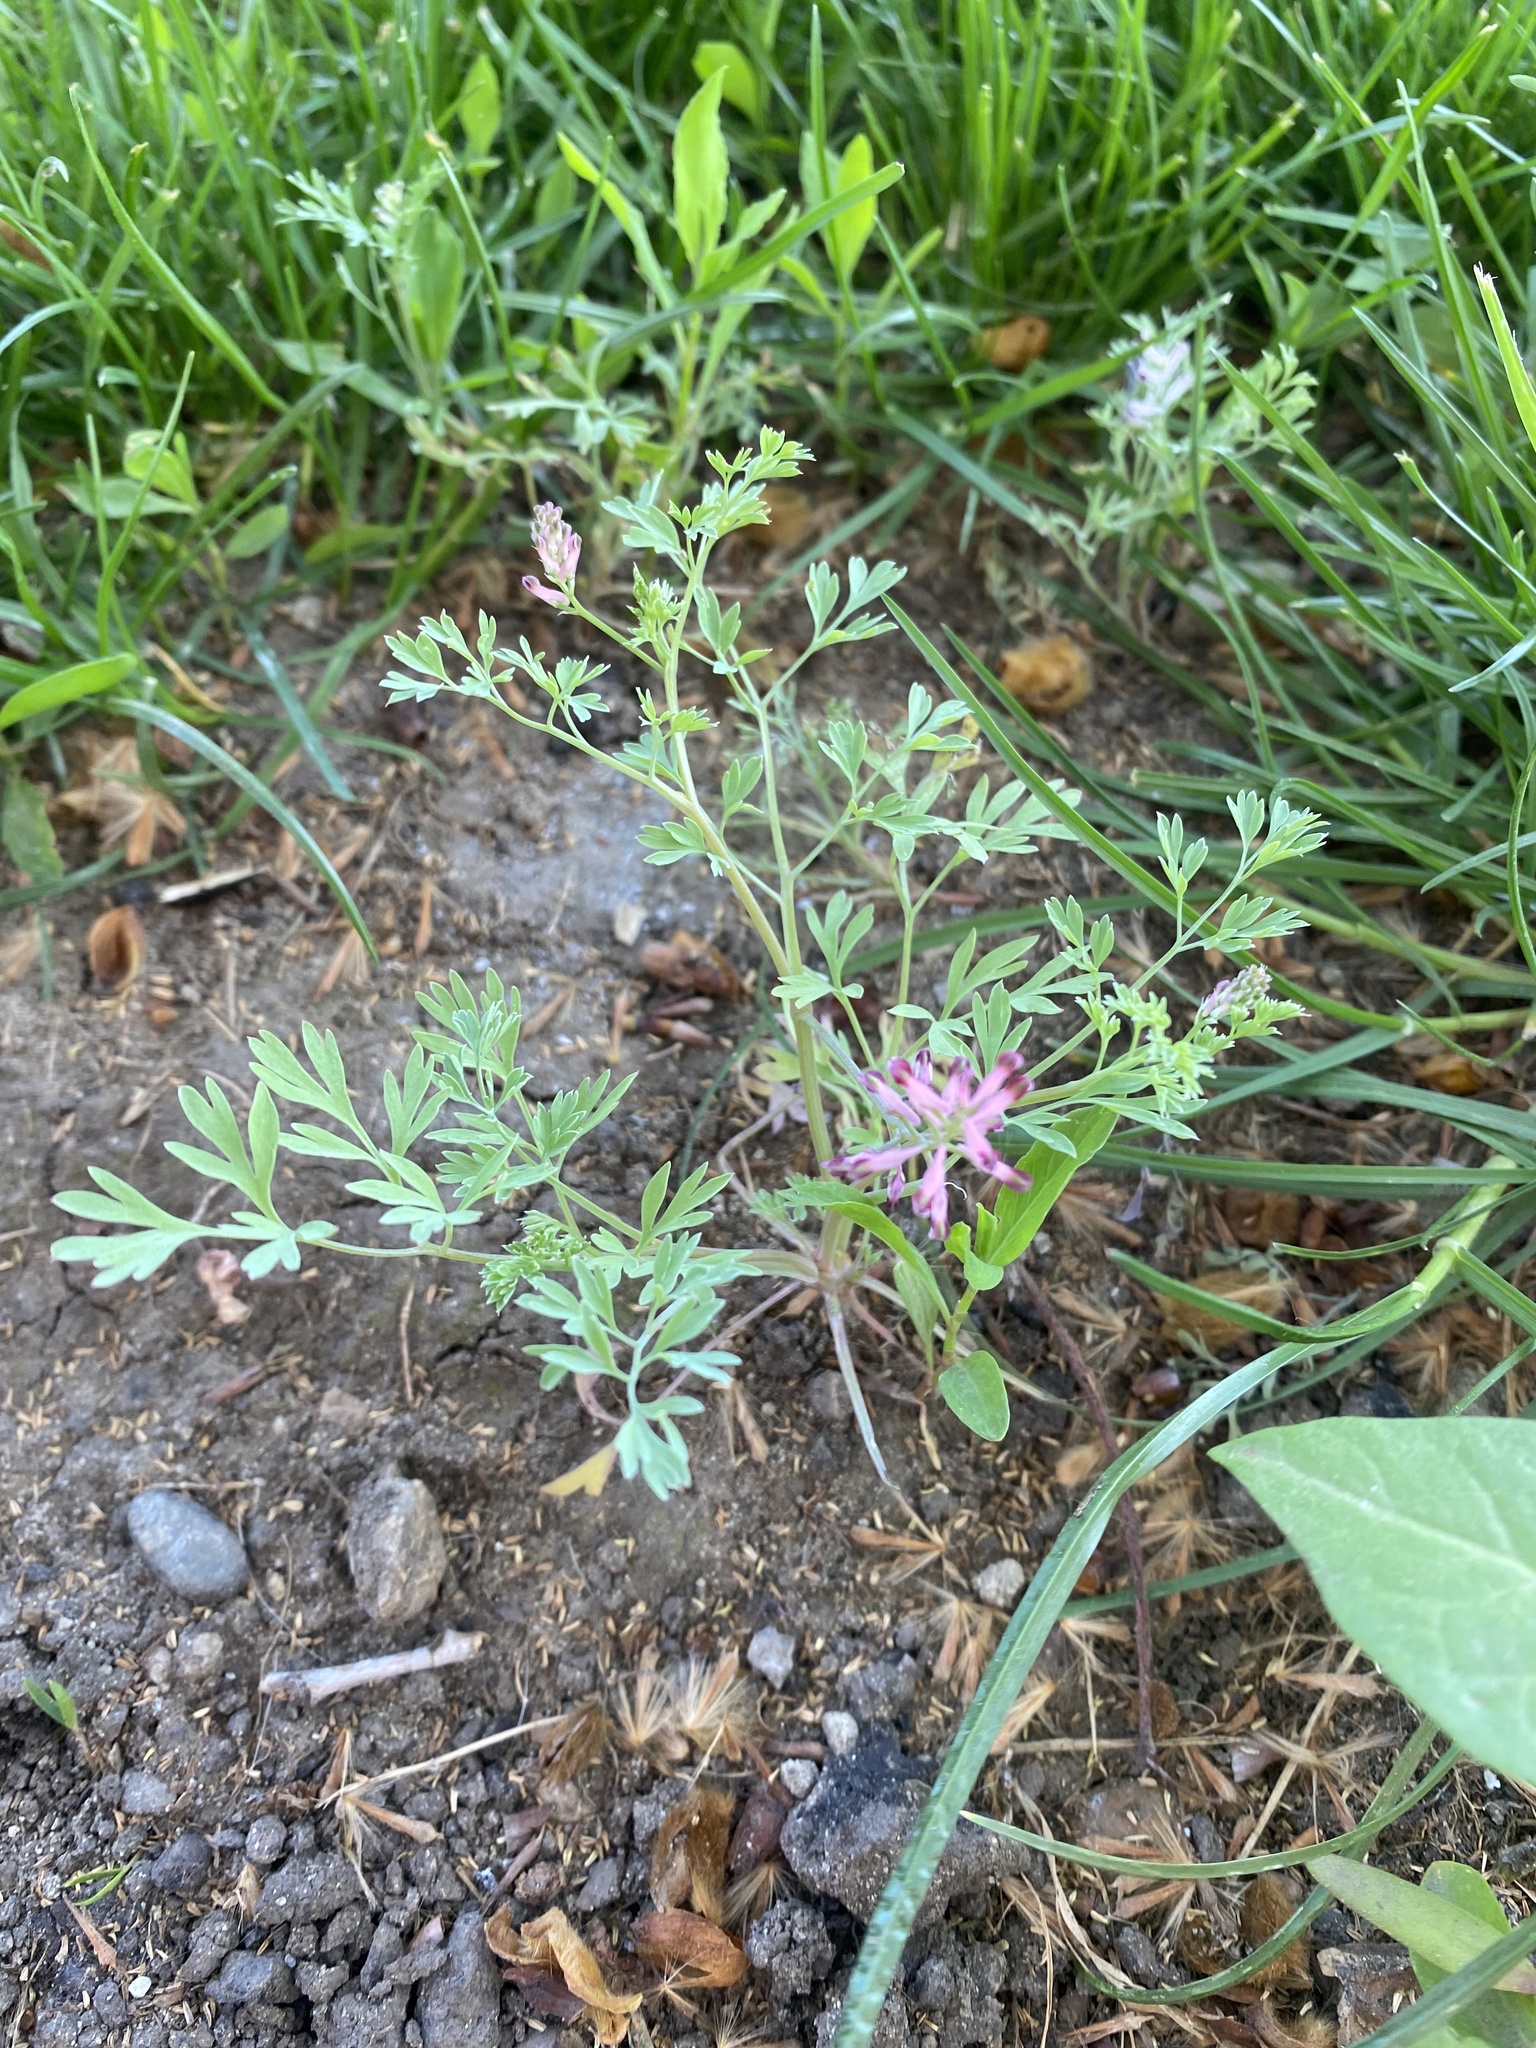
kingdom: Plantae
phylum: Tracheophyta
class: Magnoliopsida
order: Ranunculales
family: Papaveraceae
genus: Fumaria
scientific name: Fumaria schleicheri
